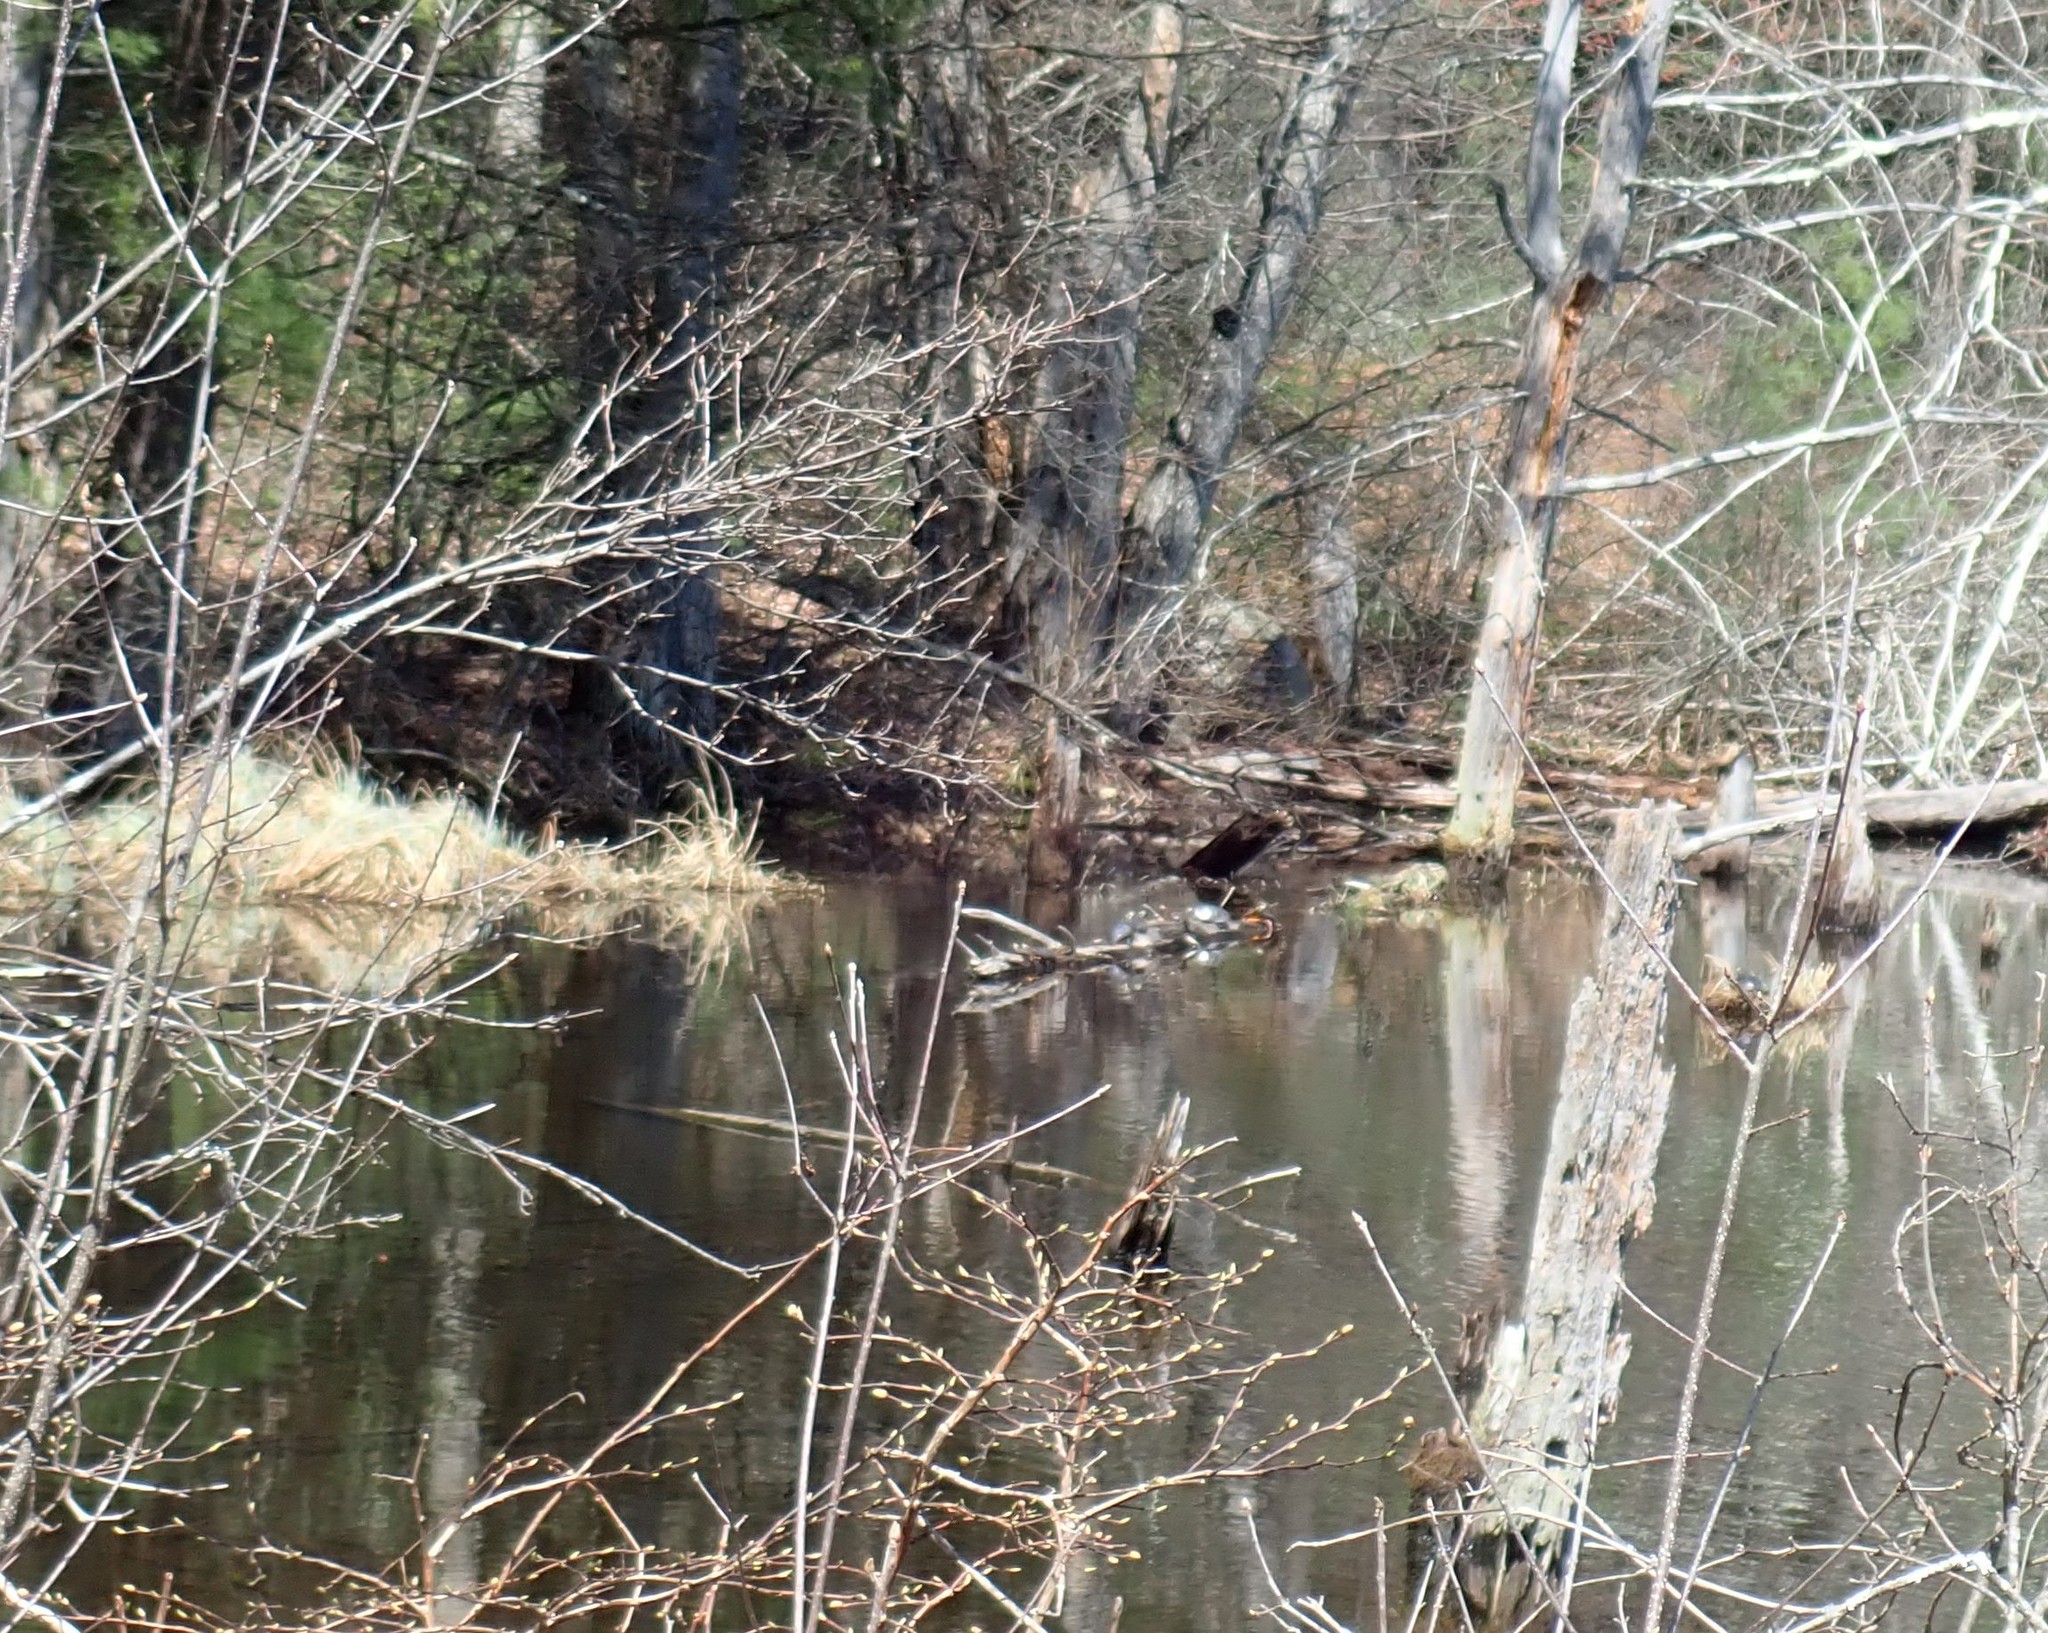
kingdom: Animalia
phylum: Chordata
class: Testudines
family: Emydidae
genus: Chrysemys
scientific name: Chrysemys picta
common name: Painted turtle
